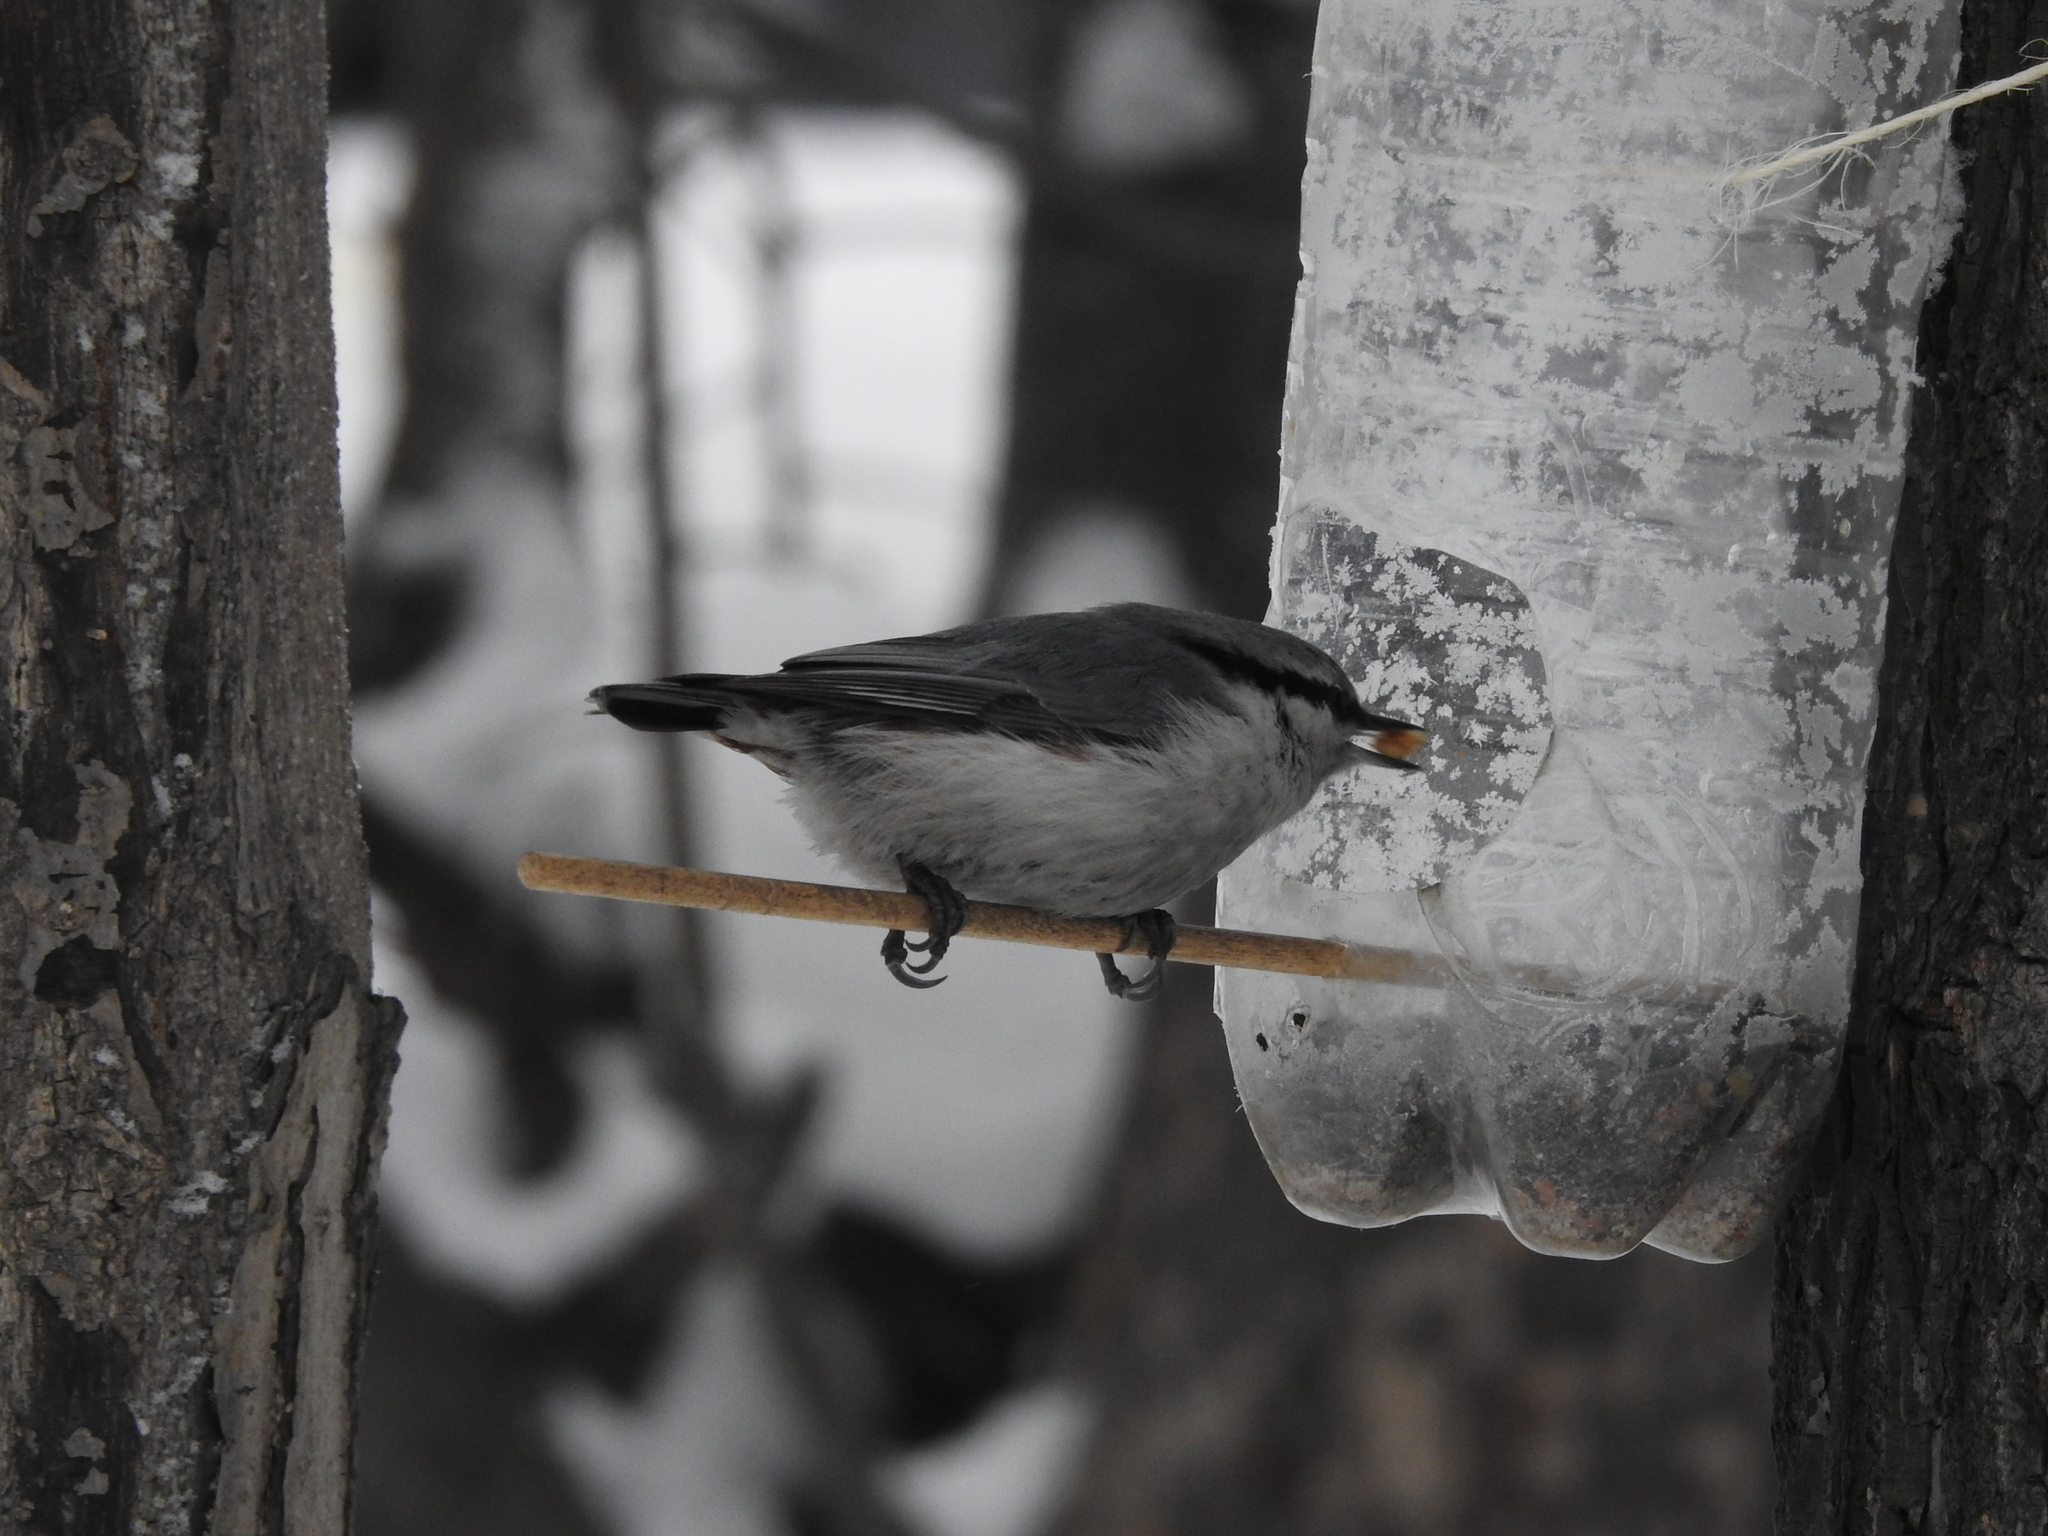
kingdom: Animalia
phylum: Chordata
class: Aves
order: Passeriformes
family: Sittidae
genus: Sitta
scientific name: Sitta europaea
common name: Eurasian nuthatch
